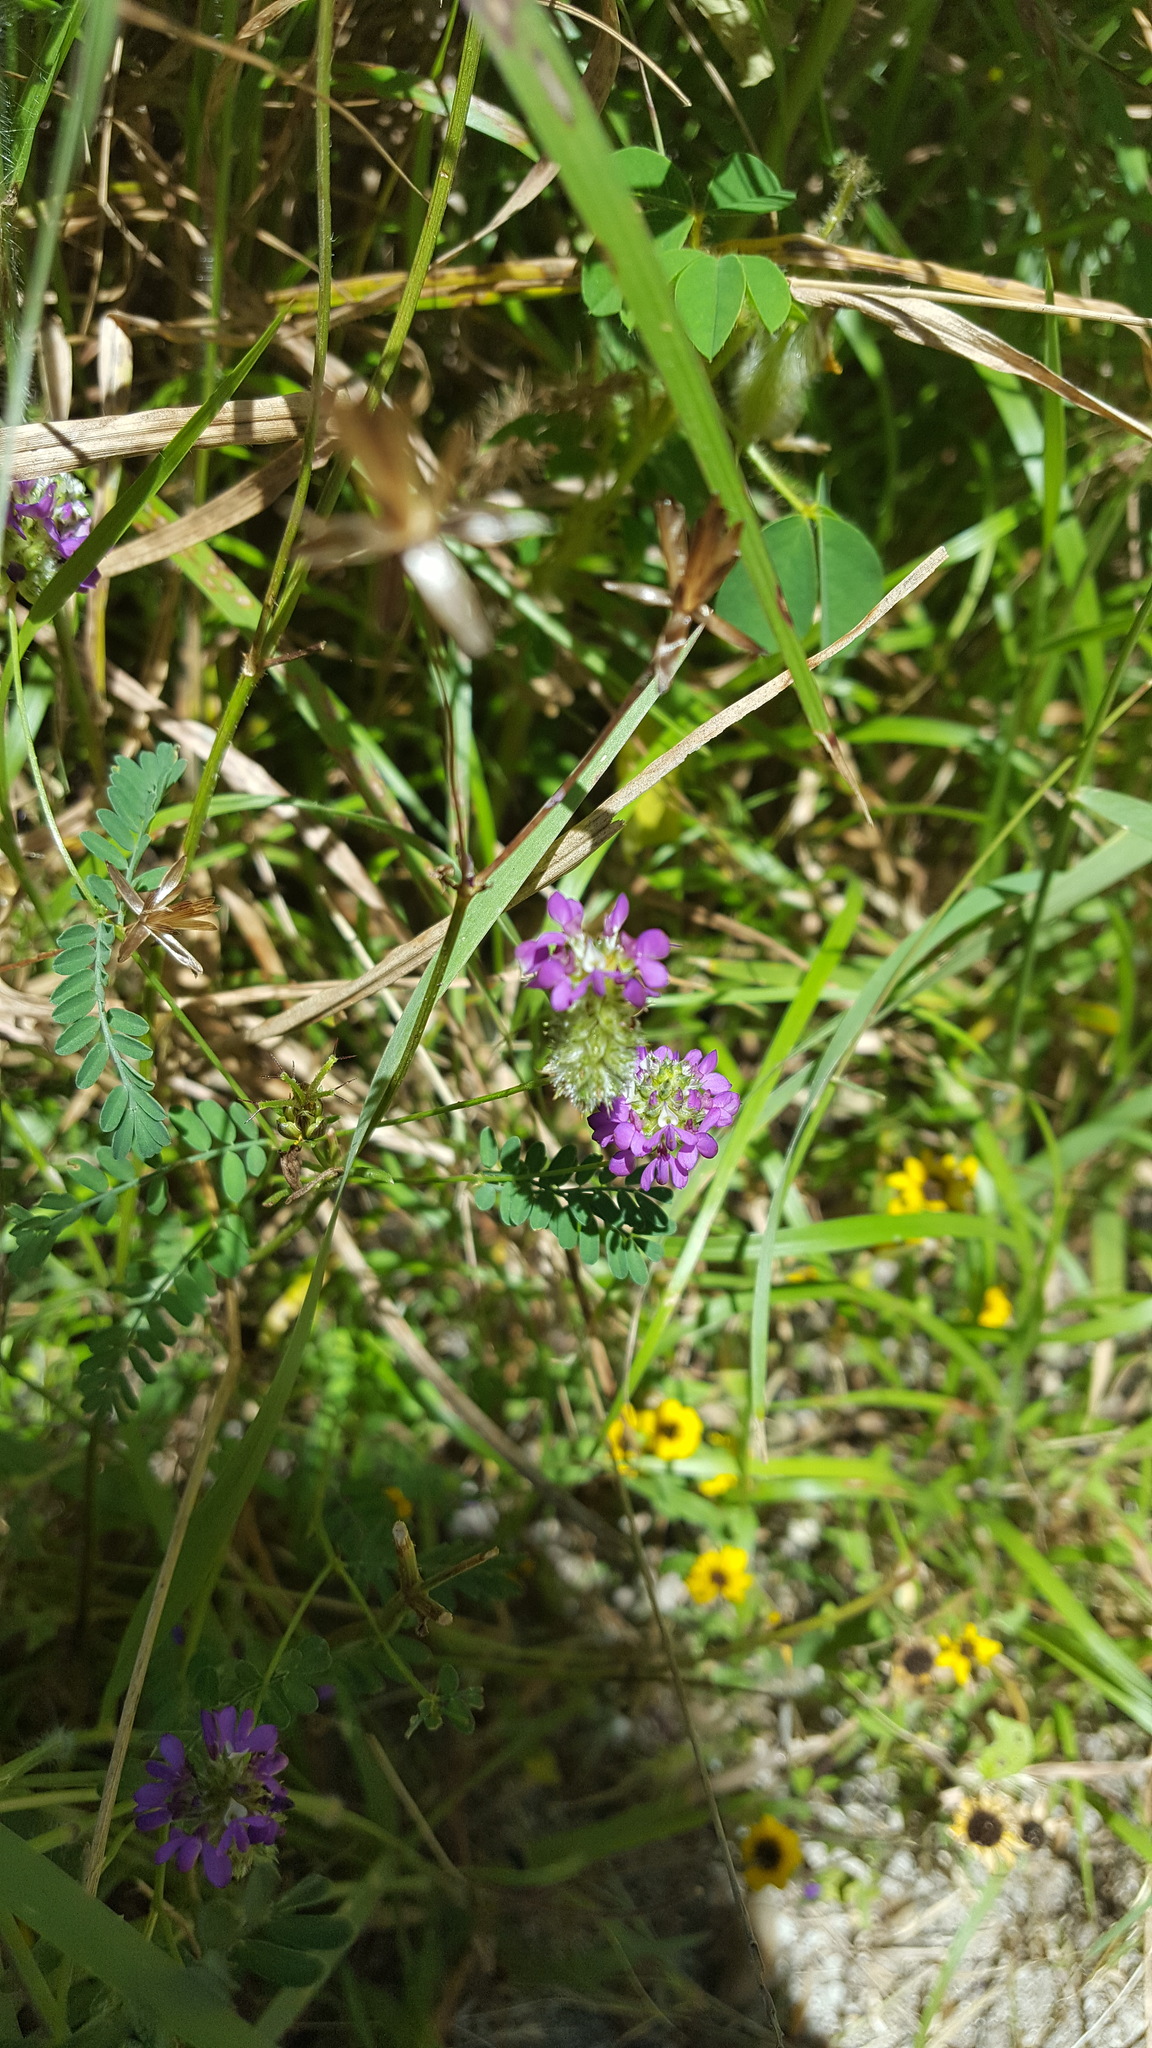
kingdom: Plantae
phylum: Tracheophyta
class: Magnoliopsida
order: Fabales
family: Fabaceae
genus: Dalea
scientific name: Dalea foliolosa
